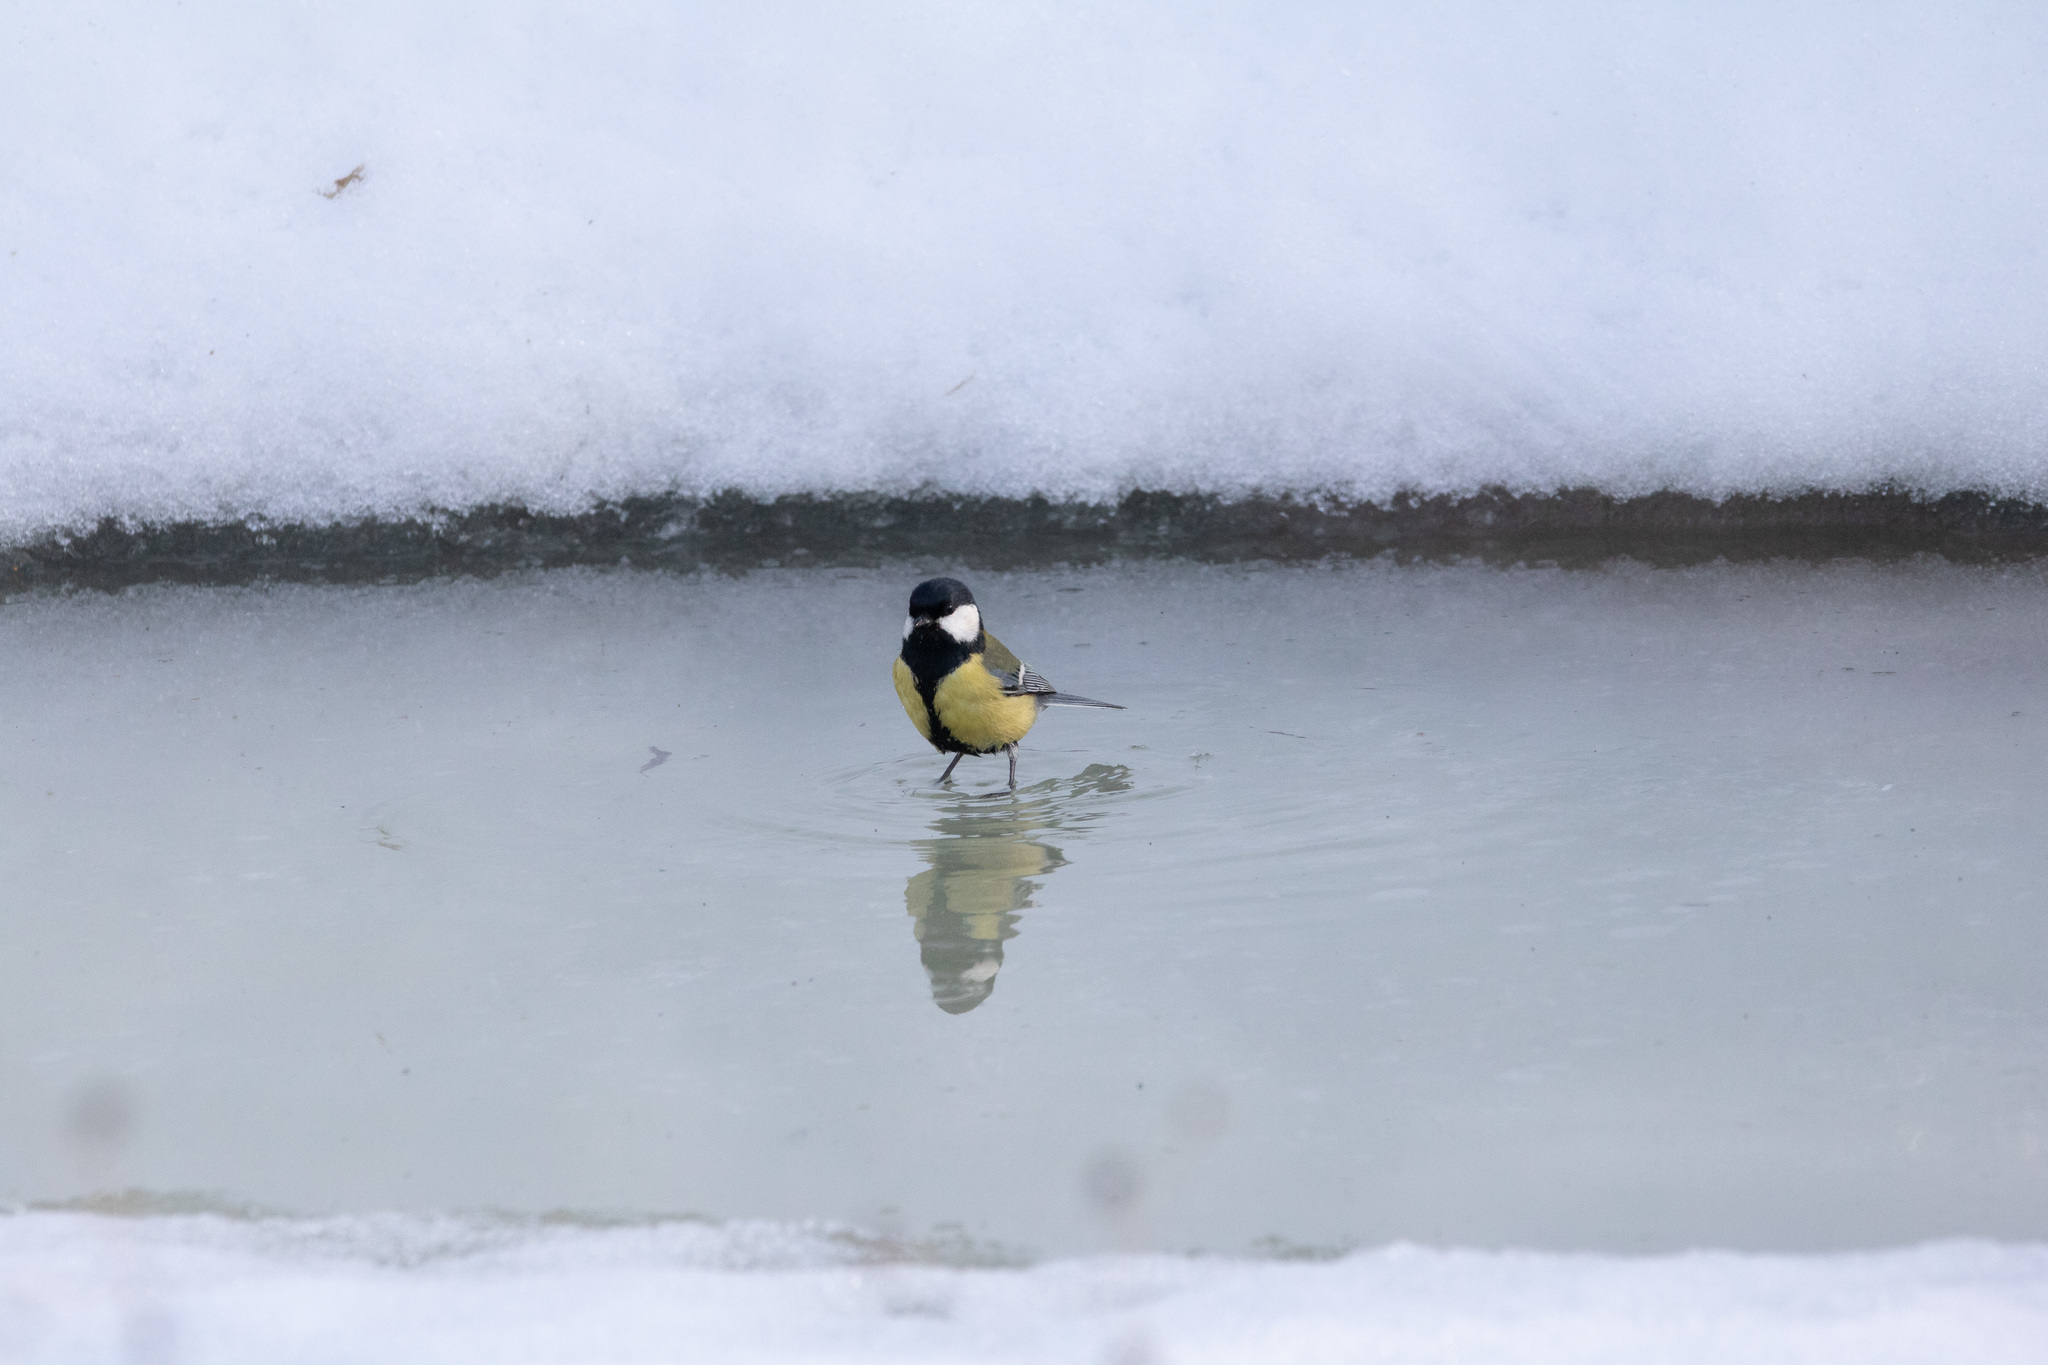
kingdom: Animalia
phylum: Chordata
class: Aves
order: Passeriformes
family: Paridae
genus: Parus
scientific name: Parus major
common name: Great tit
